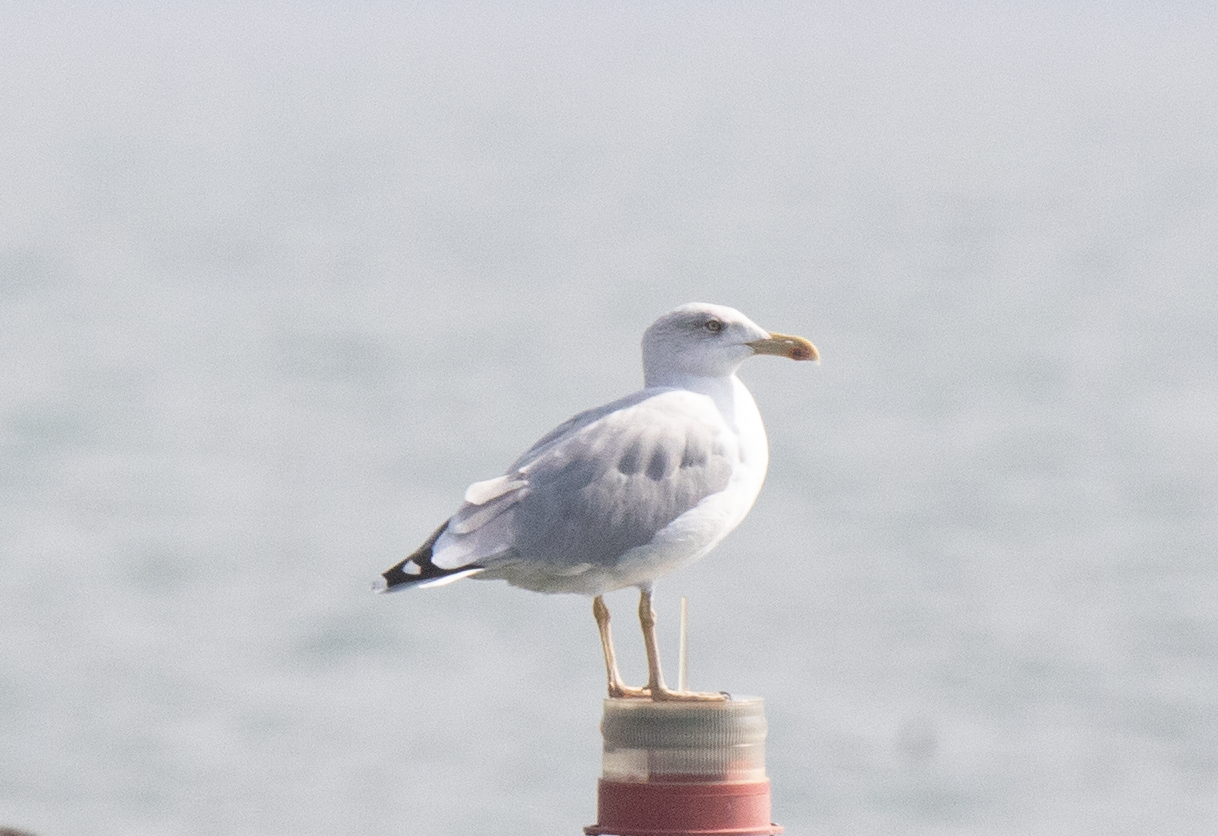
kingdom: Animalia
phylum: Chordata
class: Aves
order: Charadriiformes
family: Laridae
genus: Larus
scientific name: Larus michahellis
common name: Yellow-legged gull
